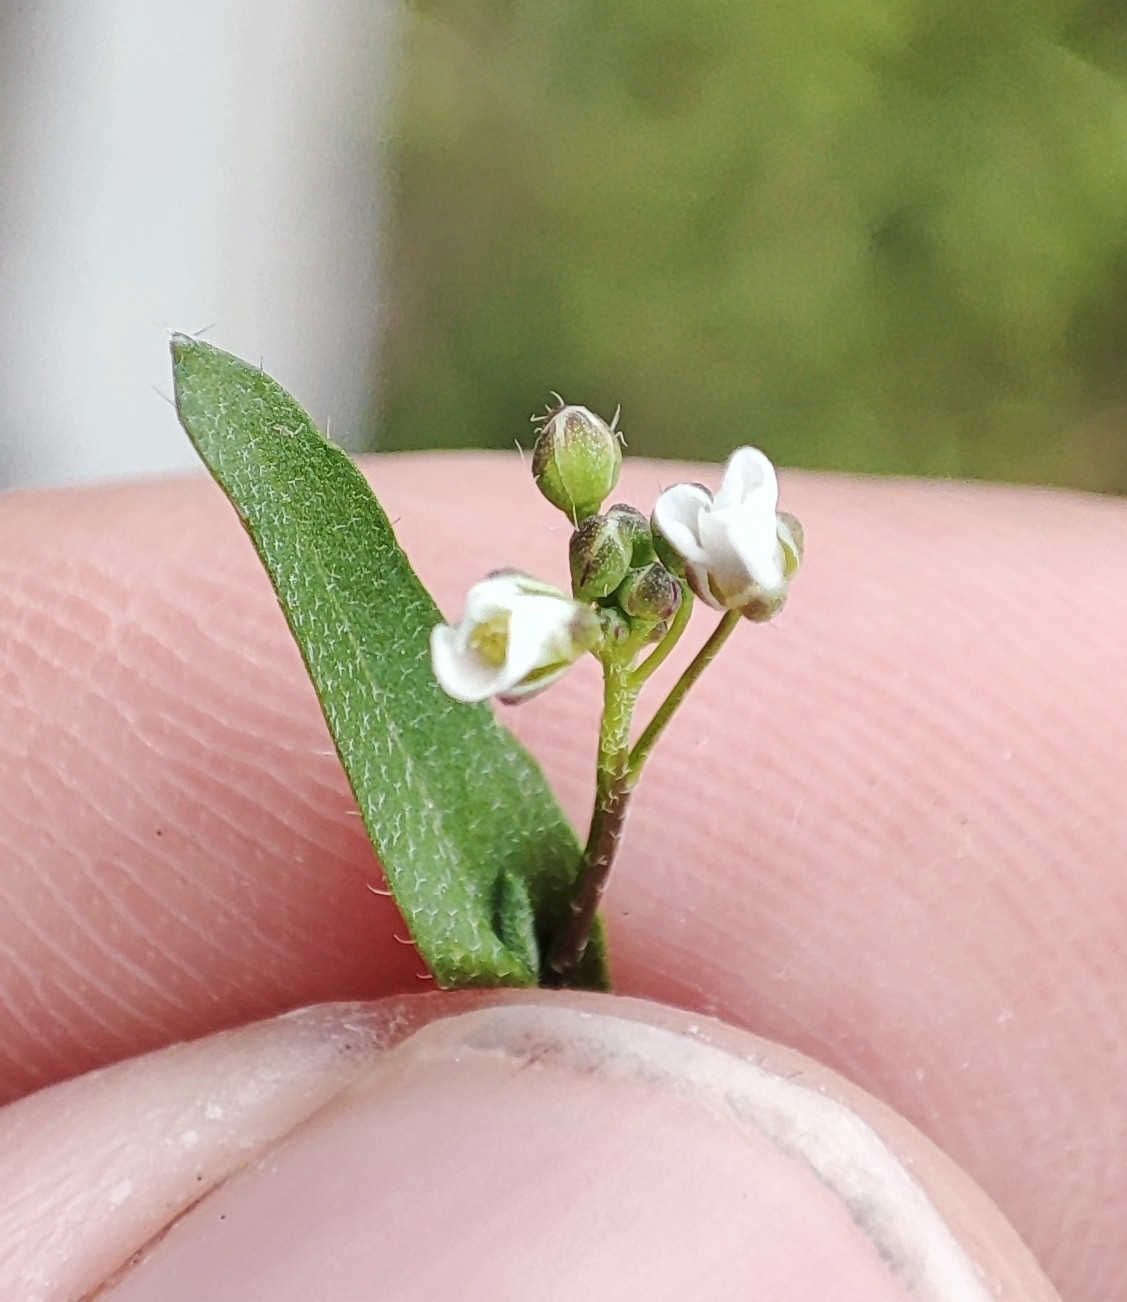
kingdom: Plantae
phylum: Tracheophyta
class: Magnoliopsida
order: Brassicales
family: Brassicaceae
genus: Capsella
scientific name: Capsella bursa-pastoris
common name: Shepherd's purse
